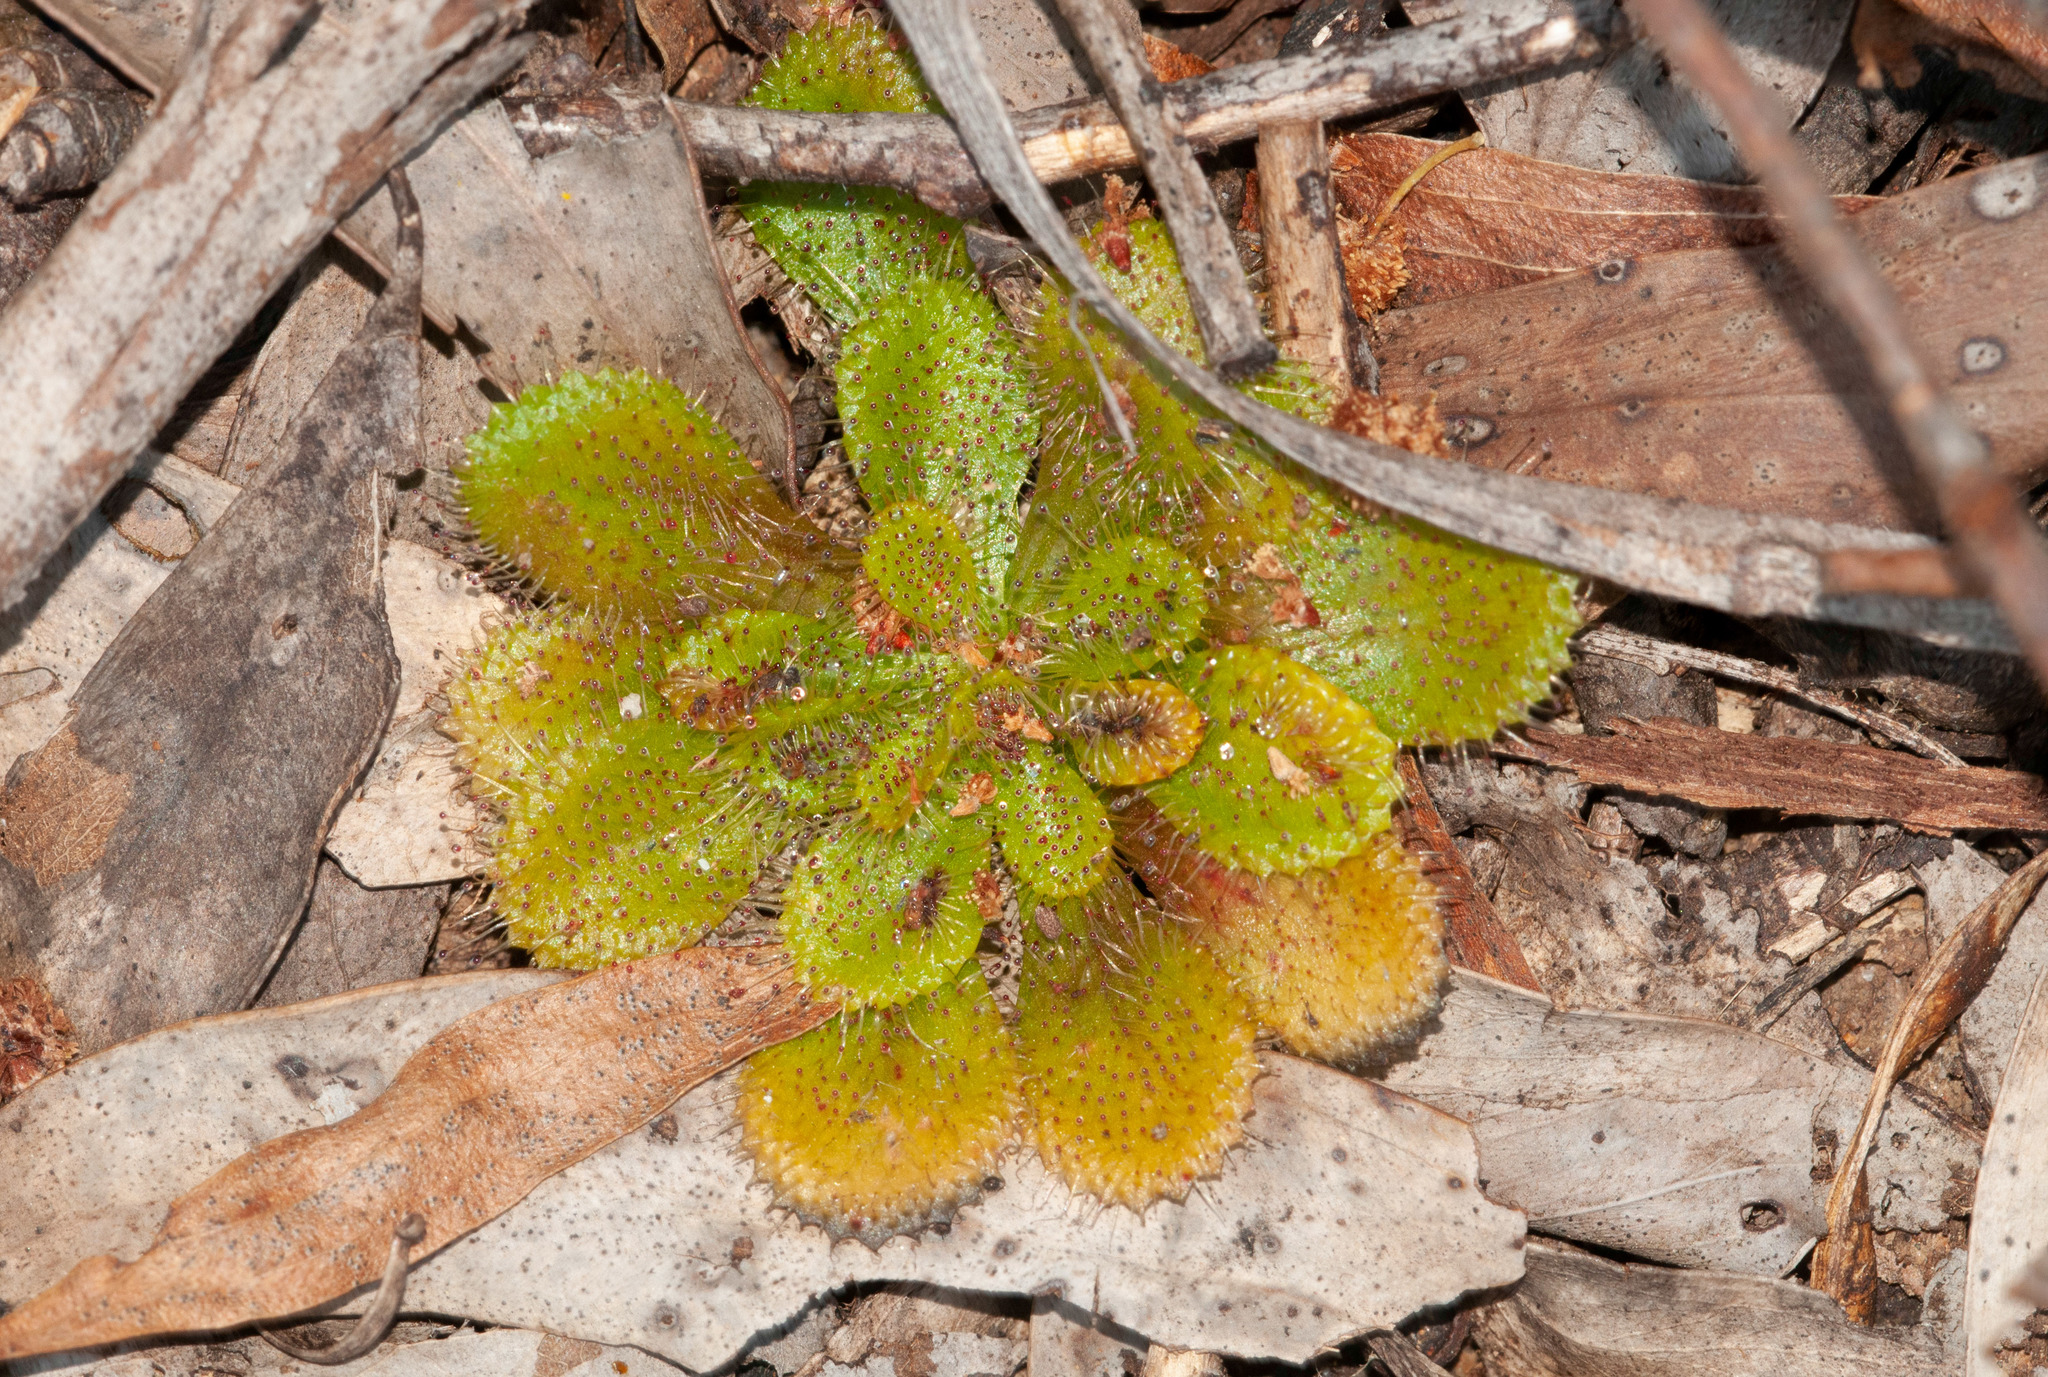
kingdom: Plantae
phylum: Tracheophyta
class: Magnoliopsida
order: Caryophyllales
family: Droseraceae
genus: Drosera
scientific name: Drosera whittakeri
